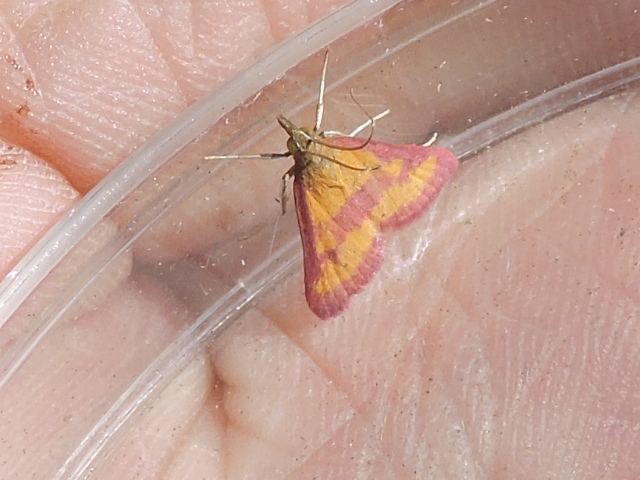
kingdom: Animalia
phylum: Arthropoda
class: Insecta
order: Lepidoptera
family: Crambidae
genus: Pyrausta
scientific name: Pyrausta laticlavia
